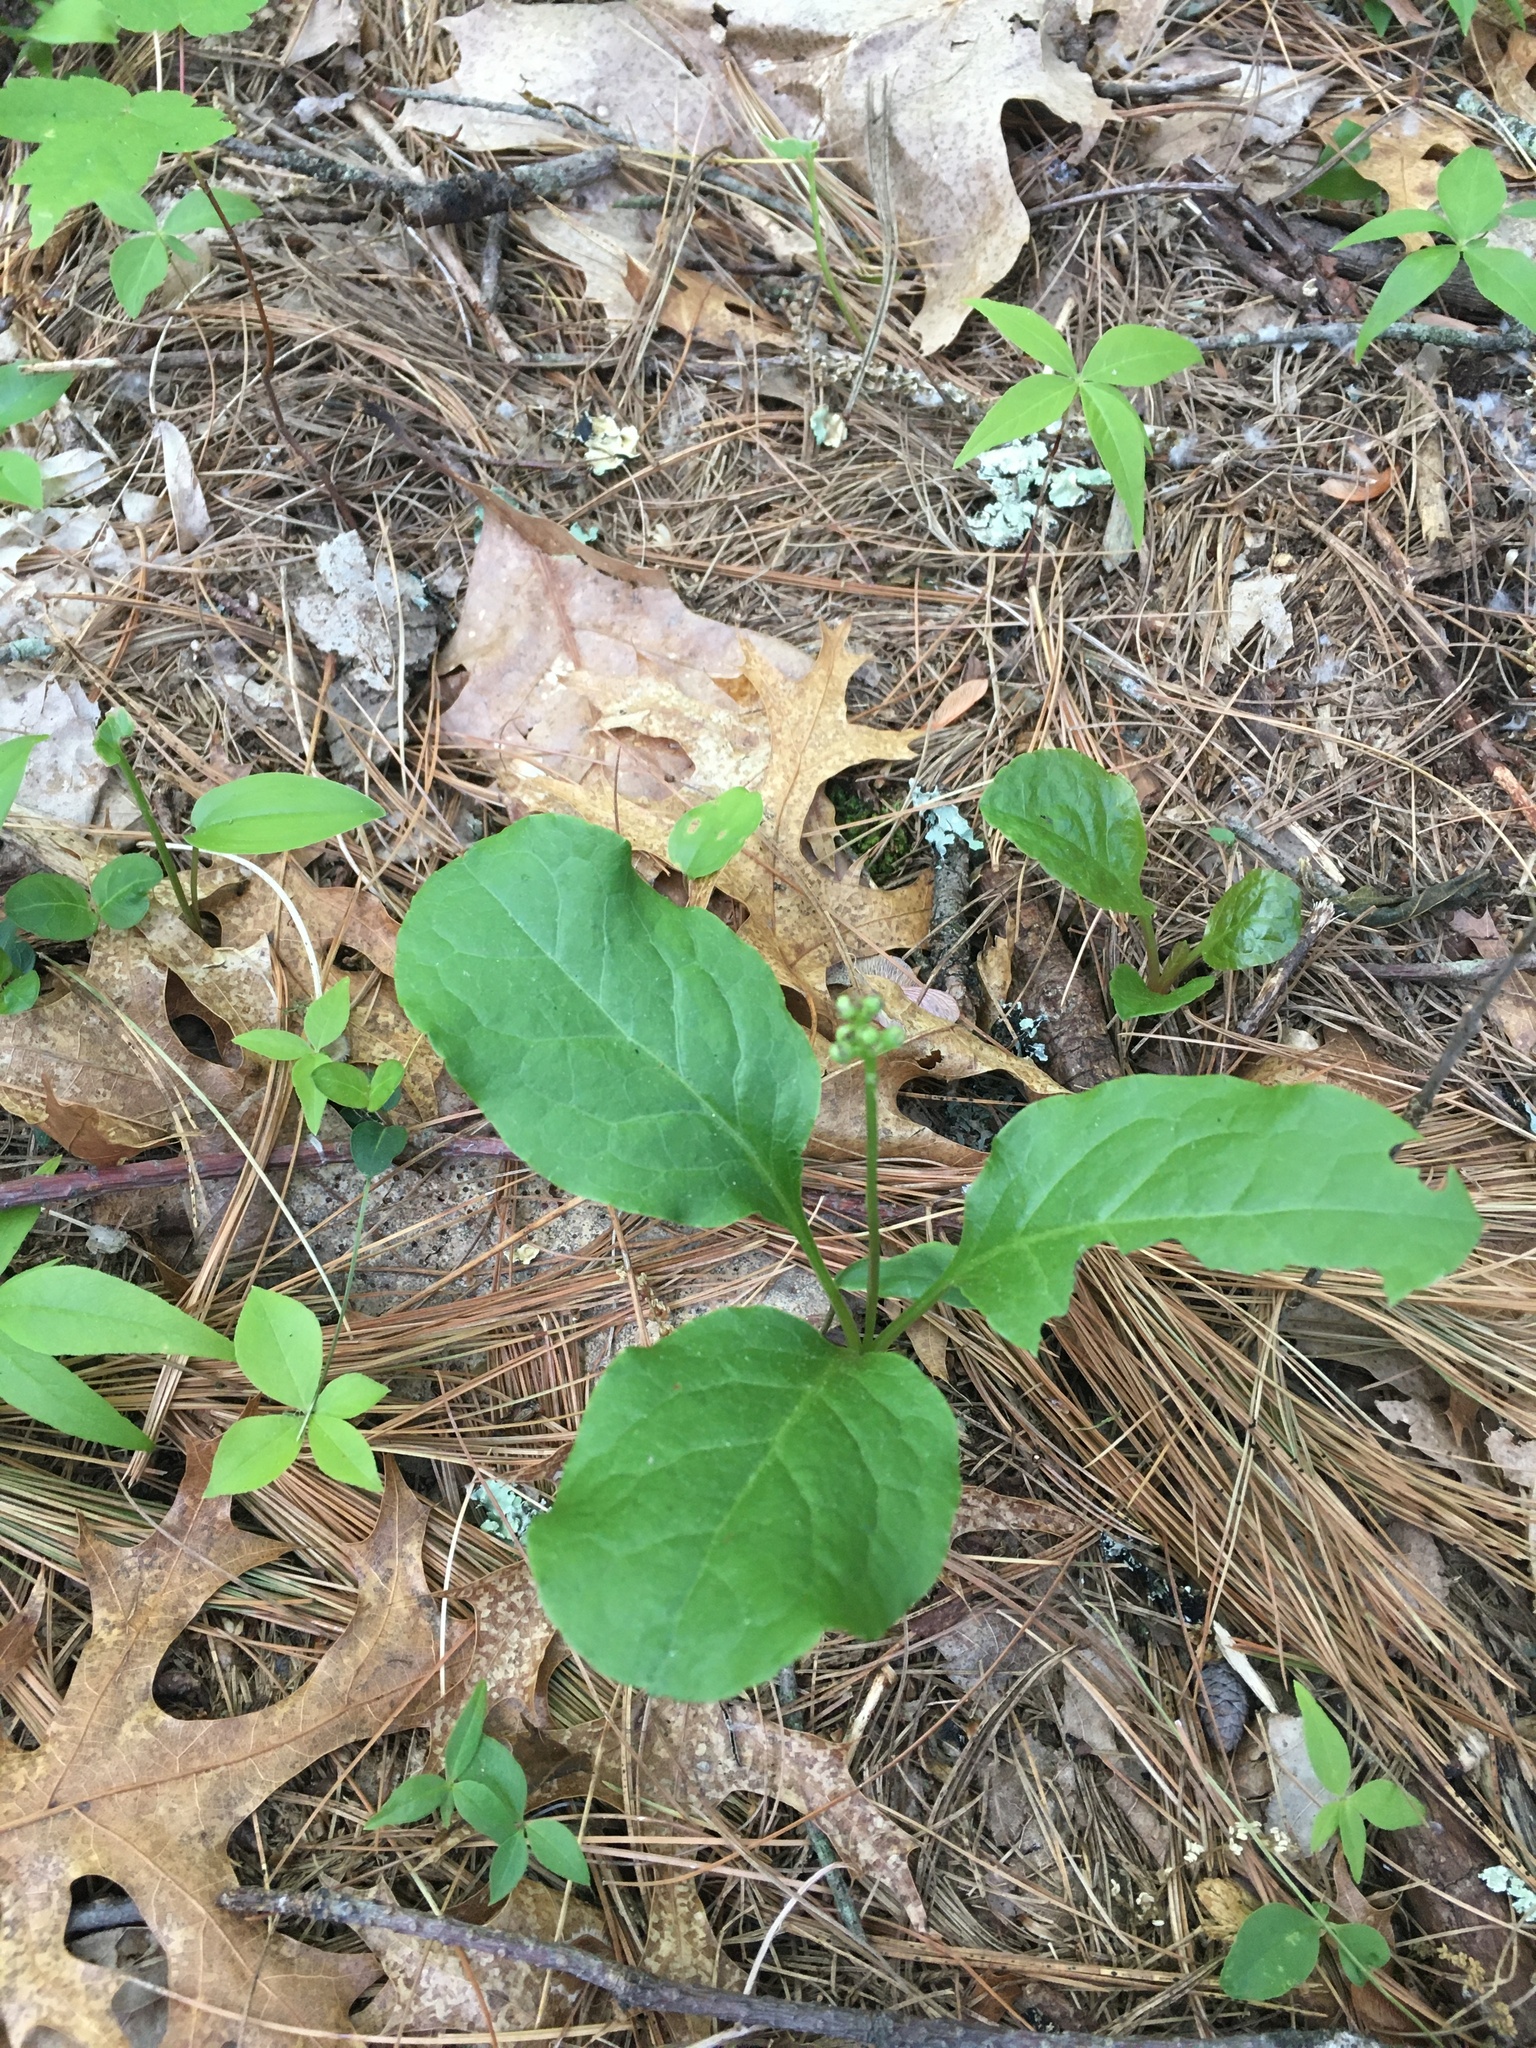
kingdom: Plantae
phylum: Tracheophyta
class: Magnoliopsida
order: Ericales
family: Ericaceae
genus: Pyrola
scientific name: Pyrola elliptica
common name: Shinleaf
